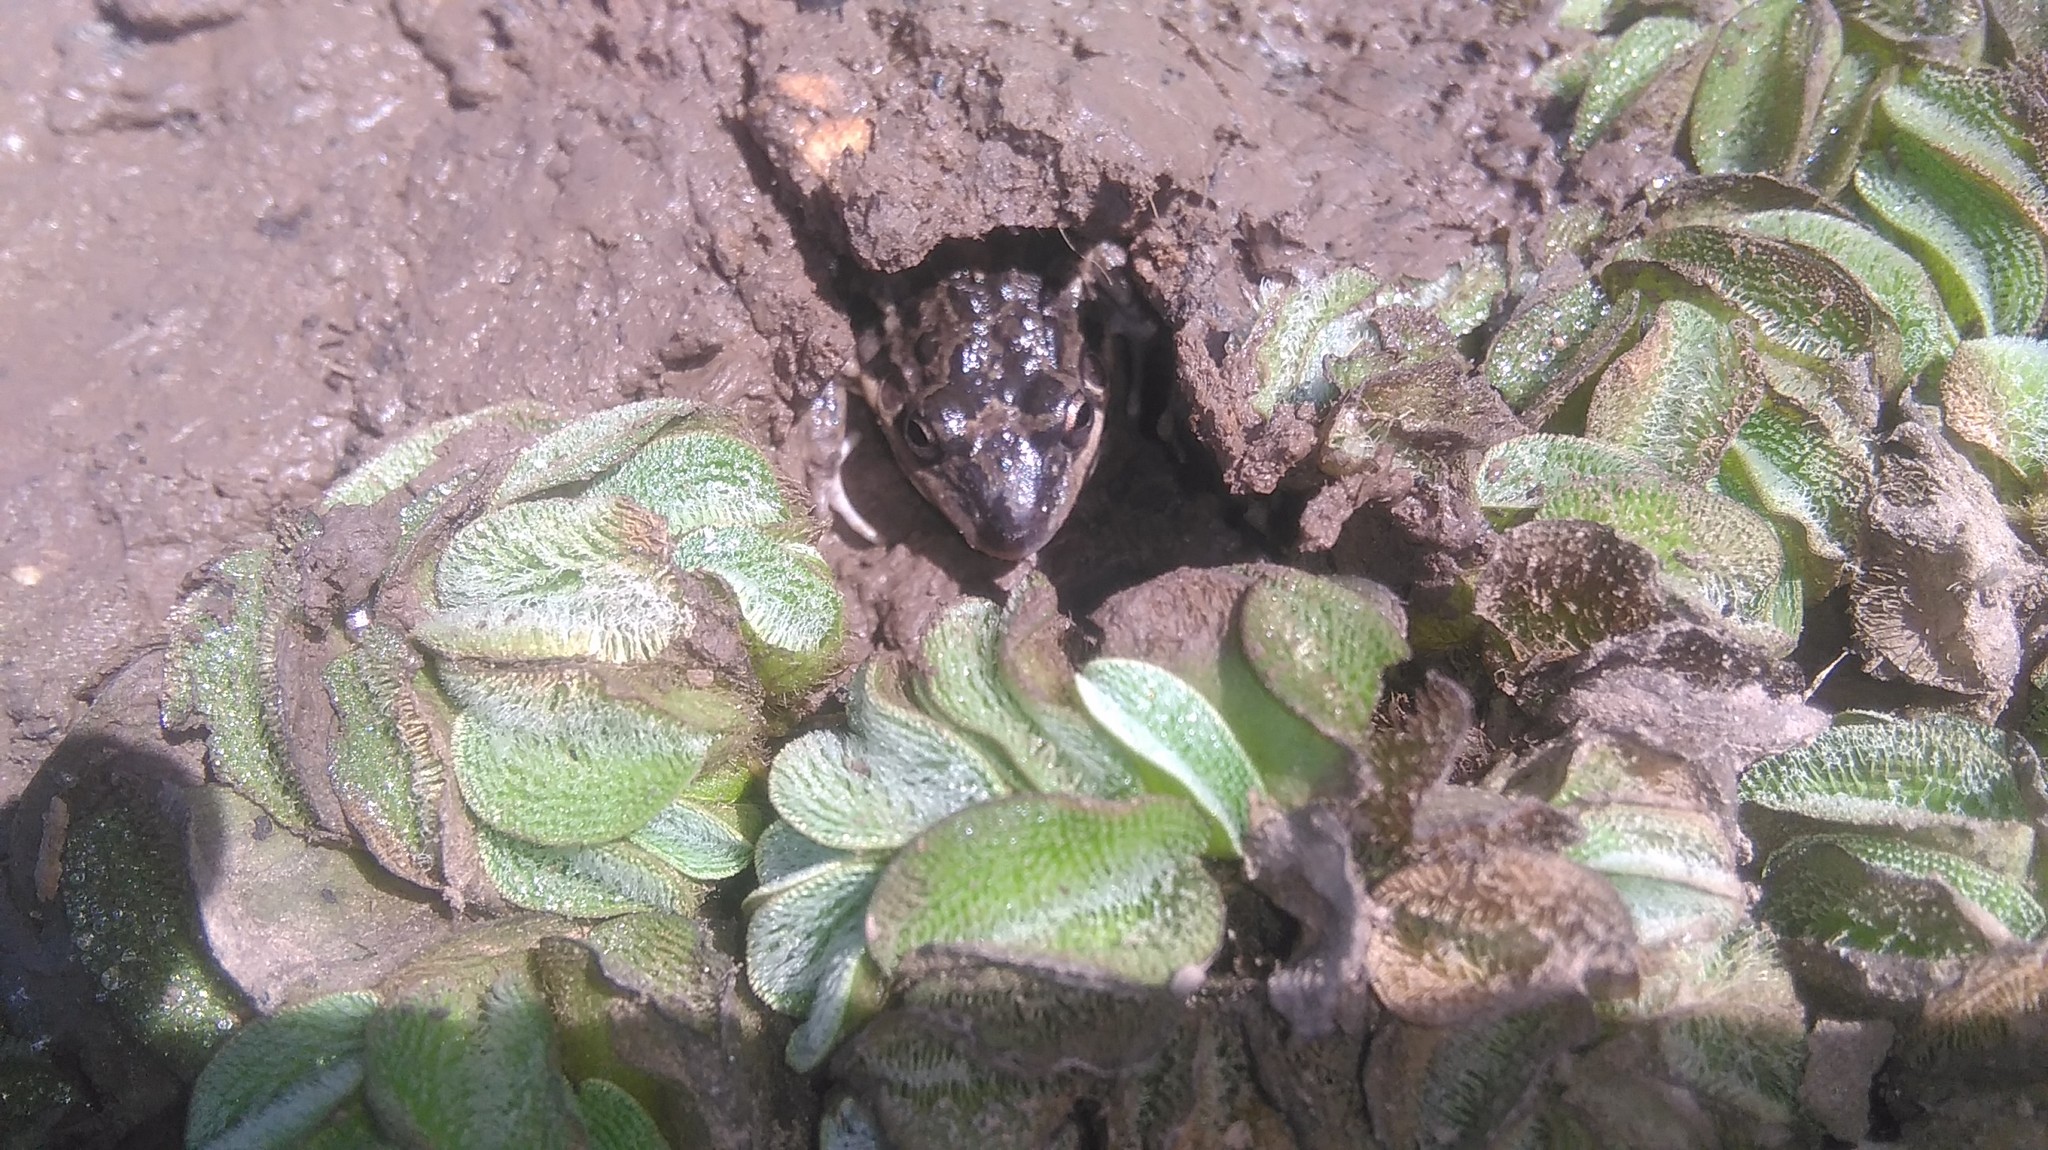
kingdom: Animalia
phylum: Chordata
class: Amphibia
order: Anura
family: Leptodactylidae
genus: Leptodactylus
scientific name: Leptodactylus latinasus
